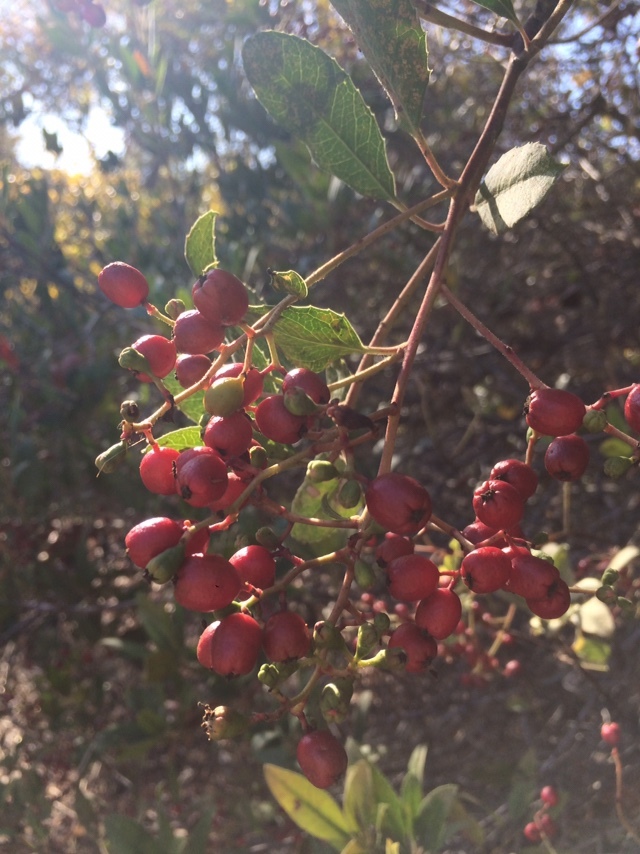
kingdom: Plantae
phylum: Tracheophyta
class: Magnoliopsida
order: Rosales
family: Rosaceae
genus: Heteromeles
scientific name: Heteromeles arbutifolia
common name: California-holly
